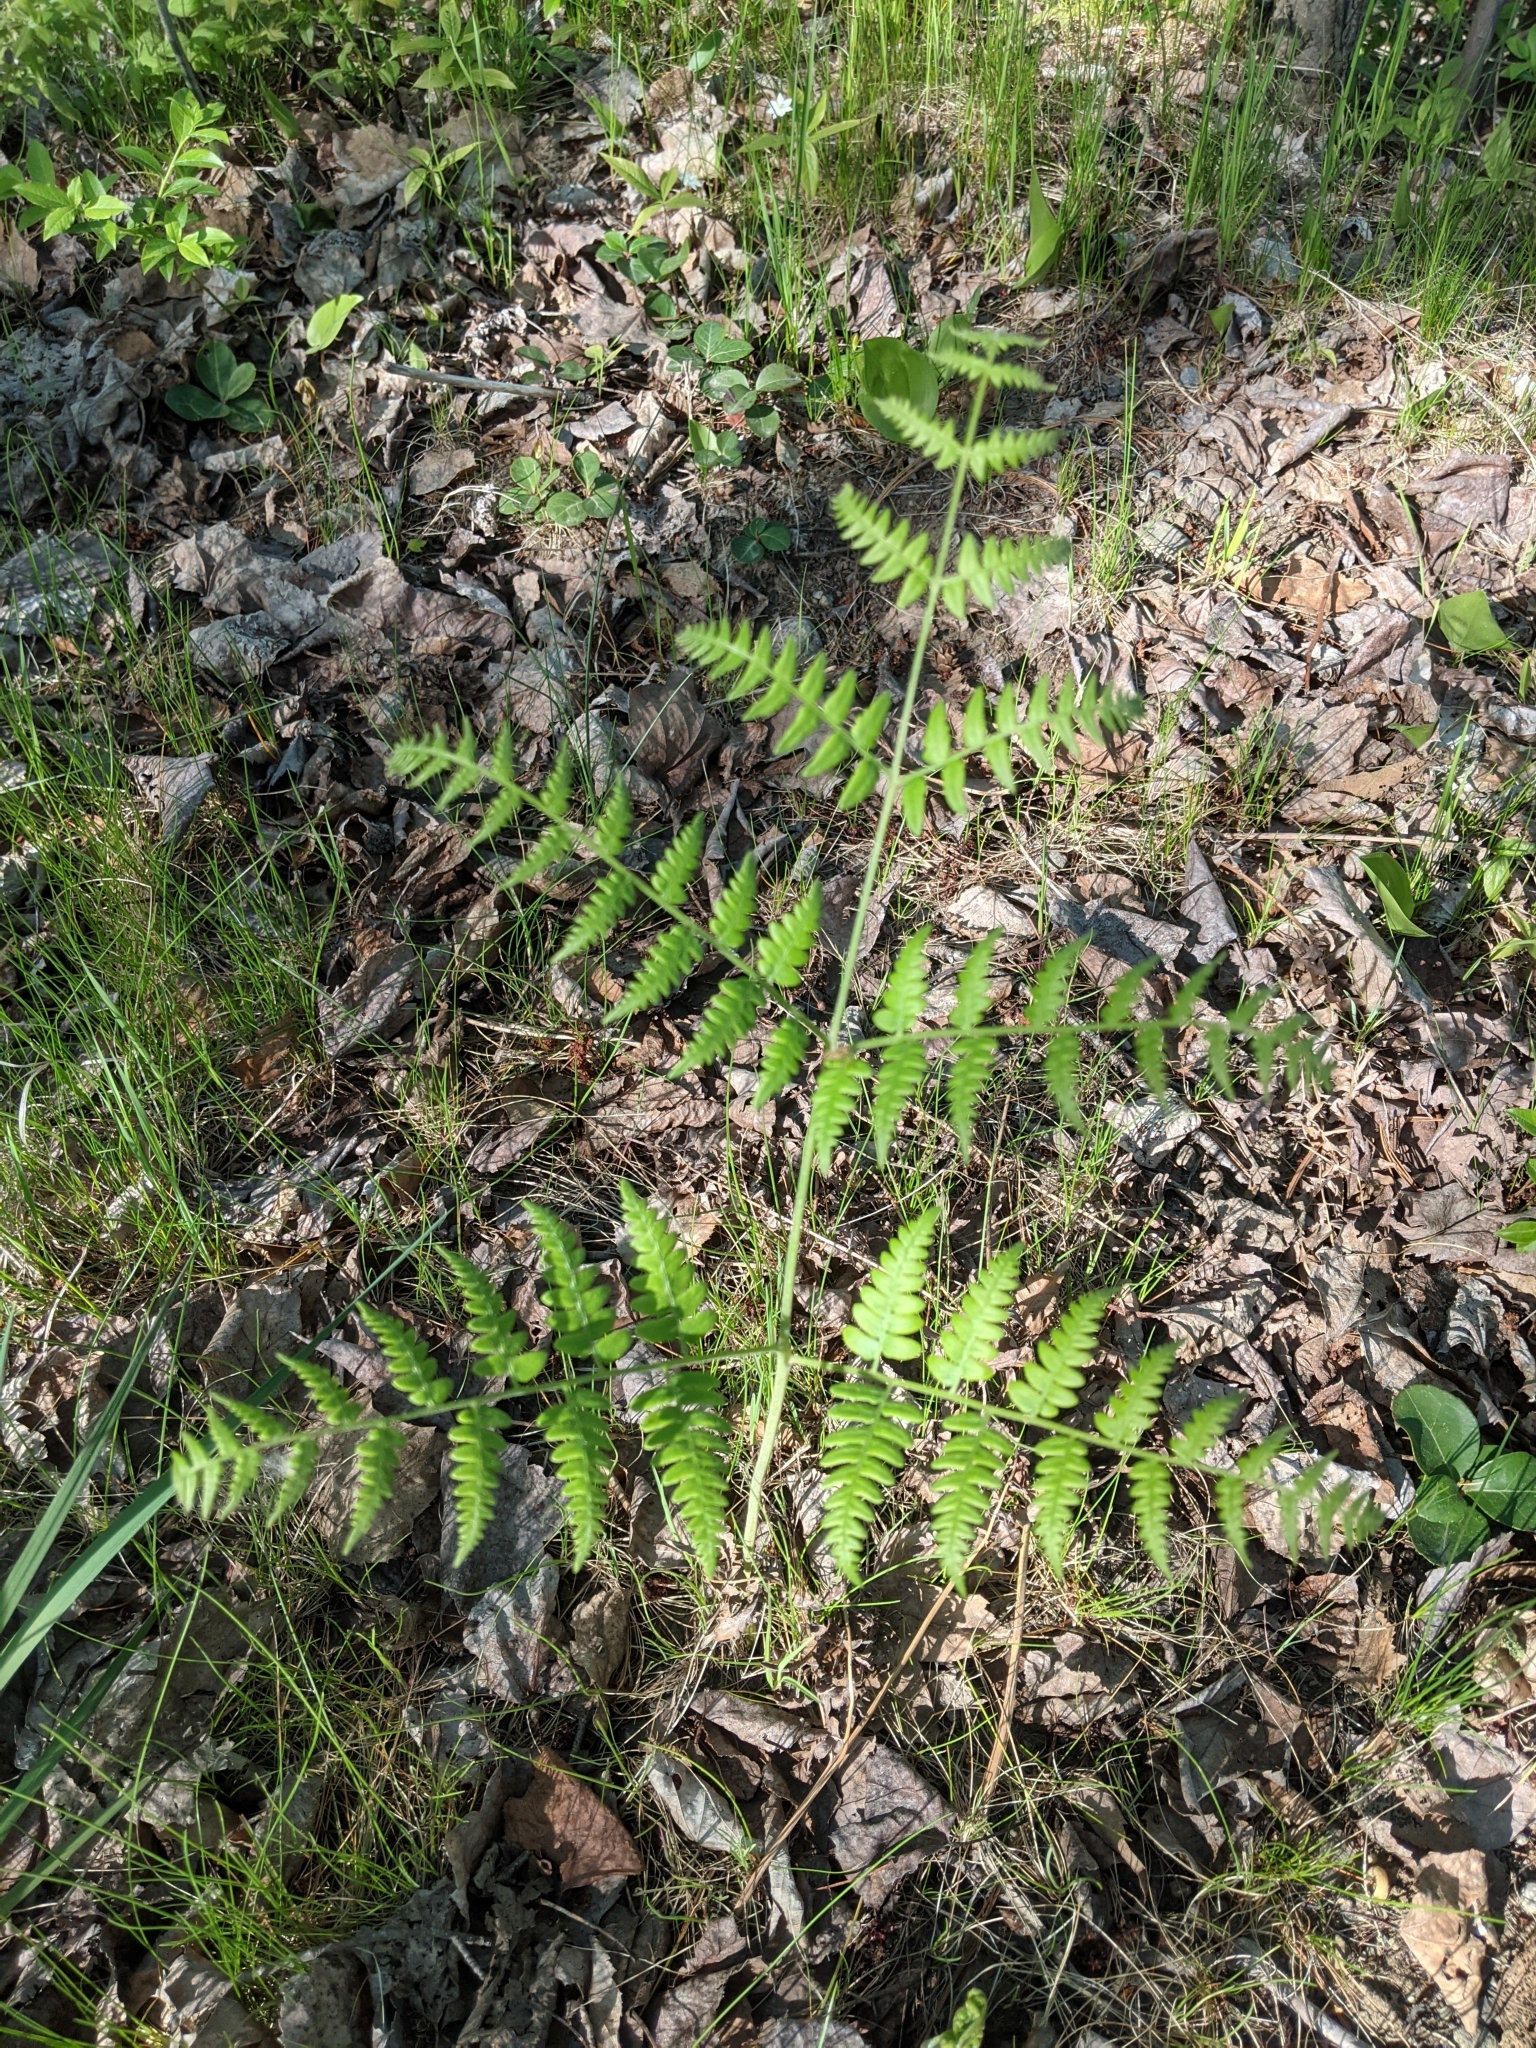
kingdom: Plantae
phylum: Tracheophyta
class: Polypodiopsida
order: Polypodiales
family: Dennstaedtiaceae
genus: Pteridium
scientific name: Pteridium aquilinum
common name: Bracken
